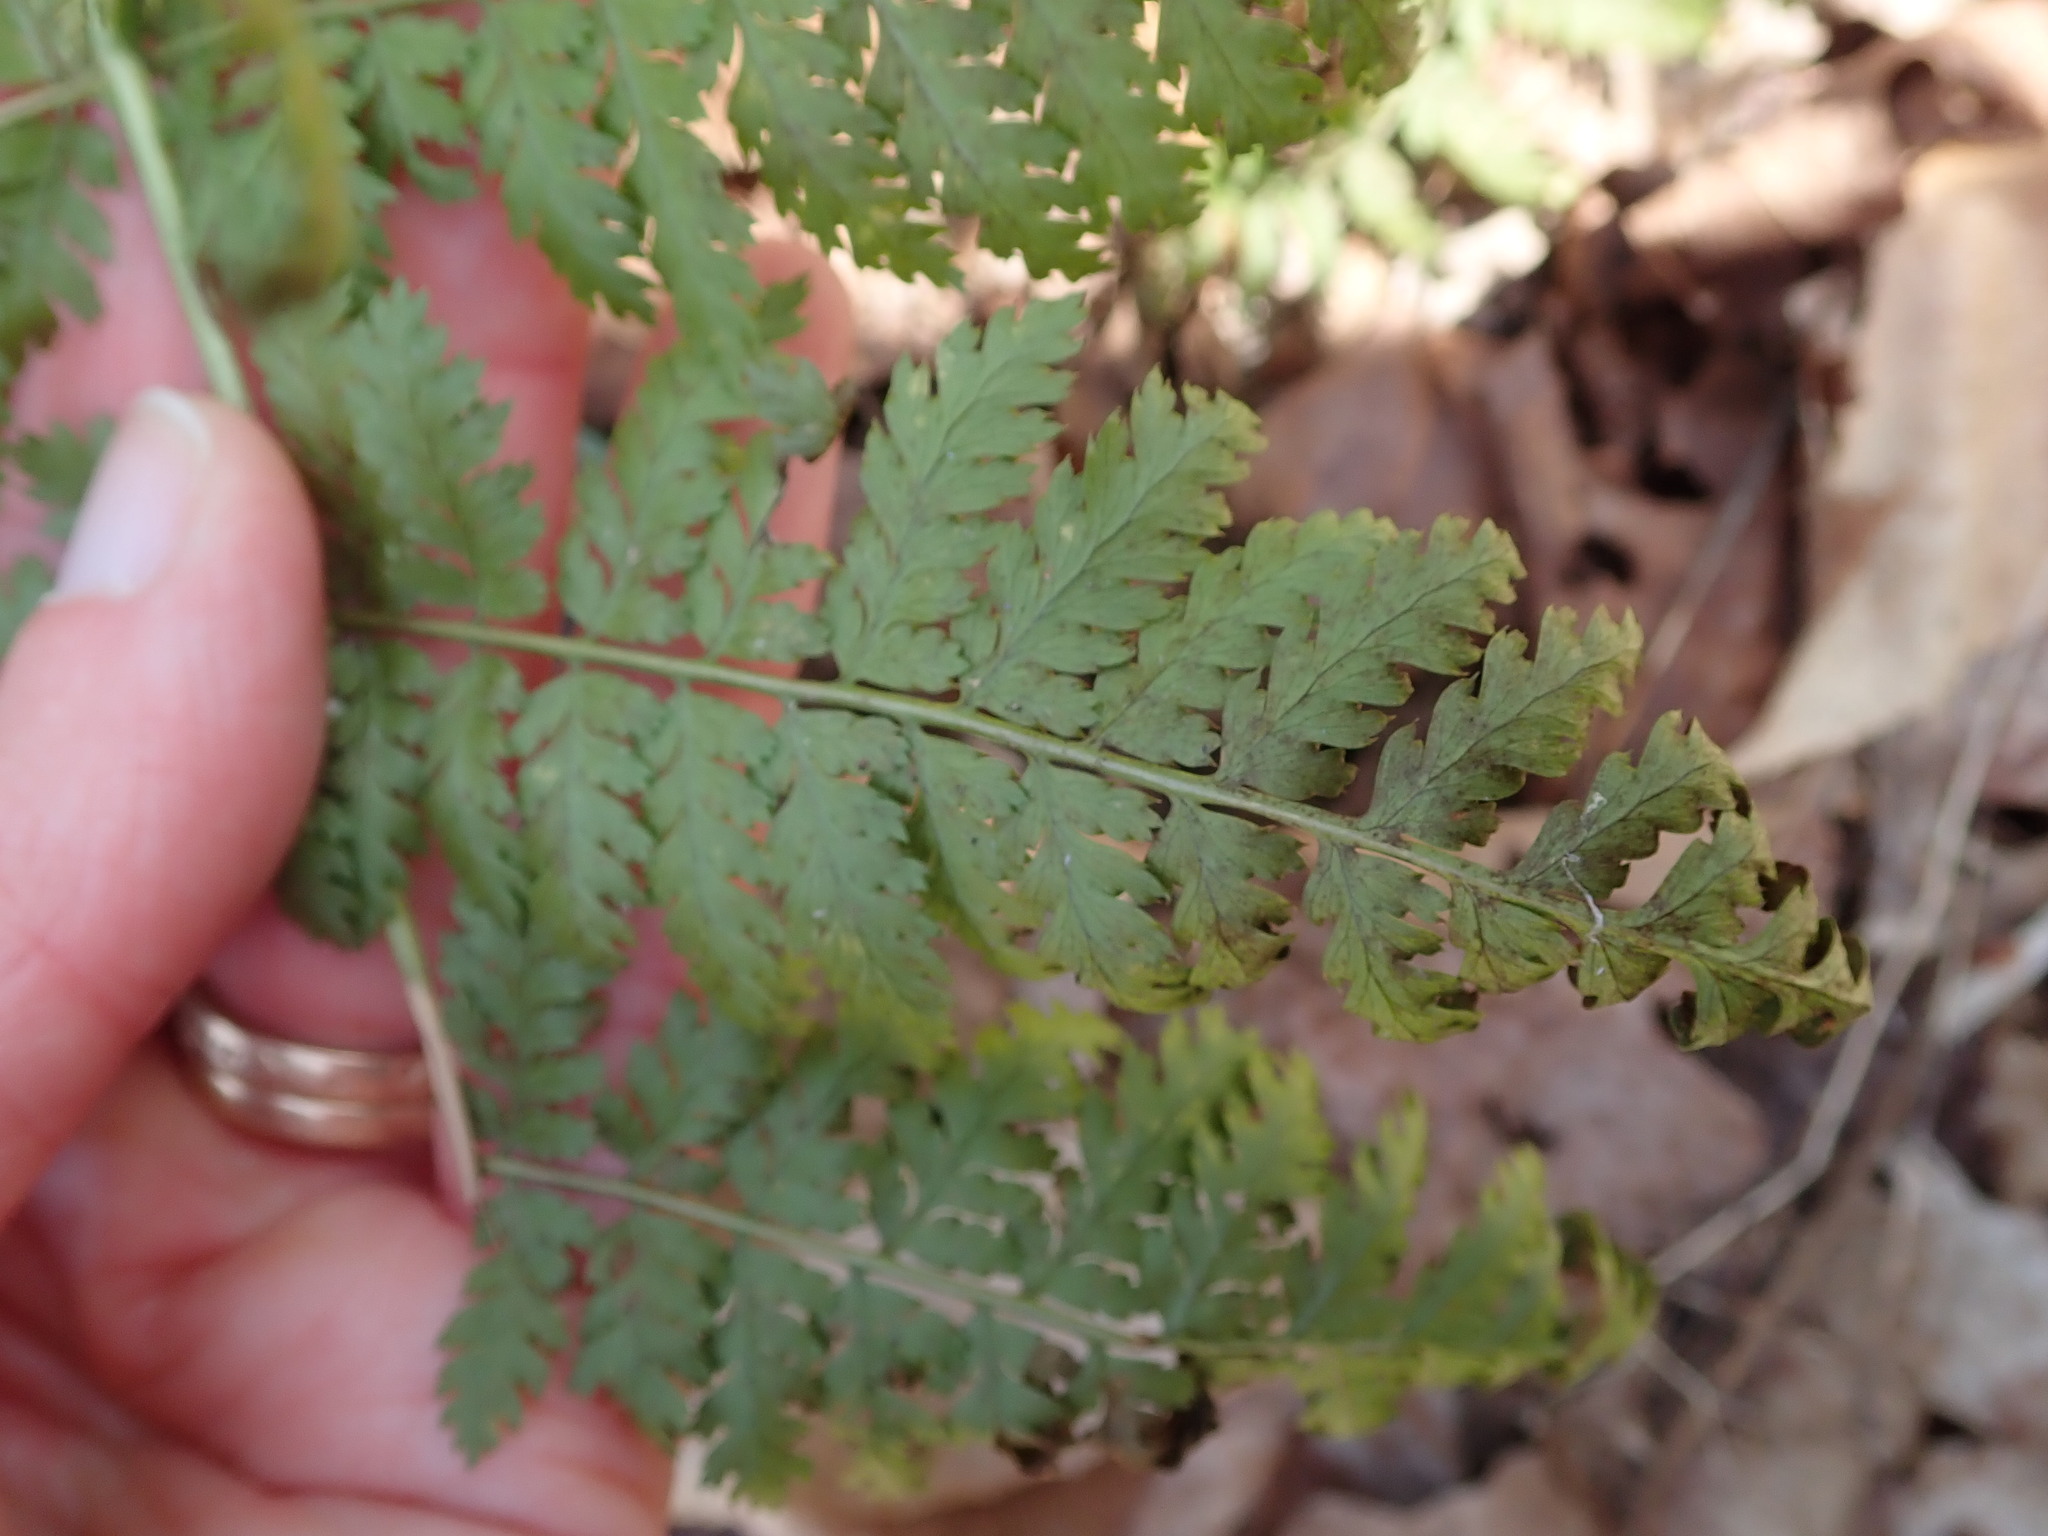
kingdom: Plantae
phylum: Tracheophyta
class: Polypodiopsida
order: Polypodiales
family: Dryopteridaceae
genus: Dryopteris
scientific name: Dryopteris intermedia
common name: Evergreen wood fern
